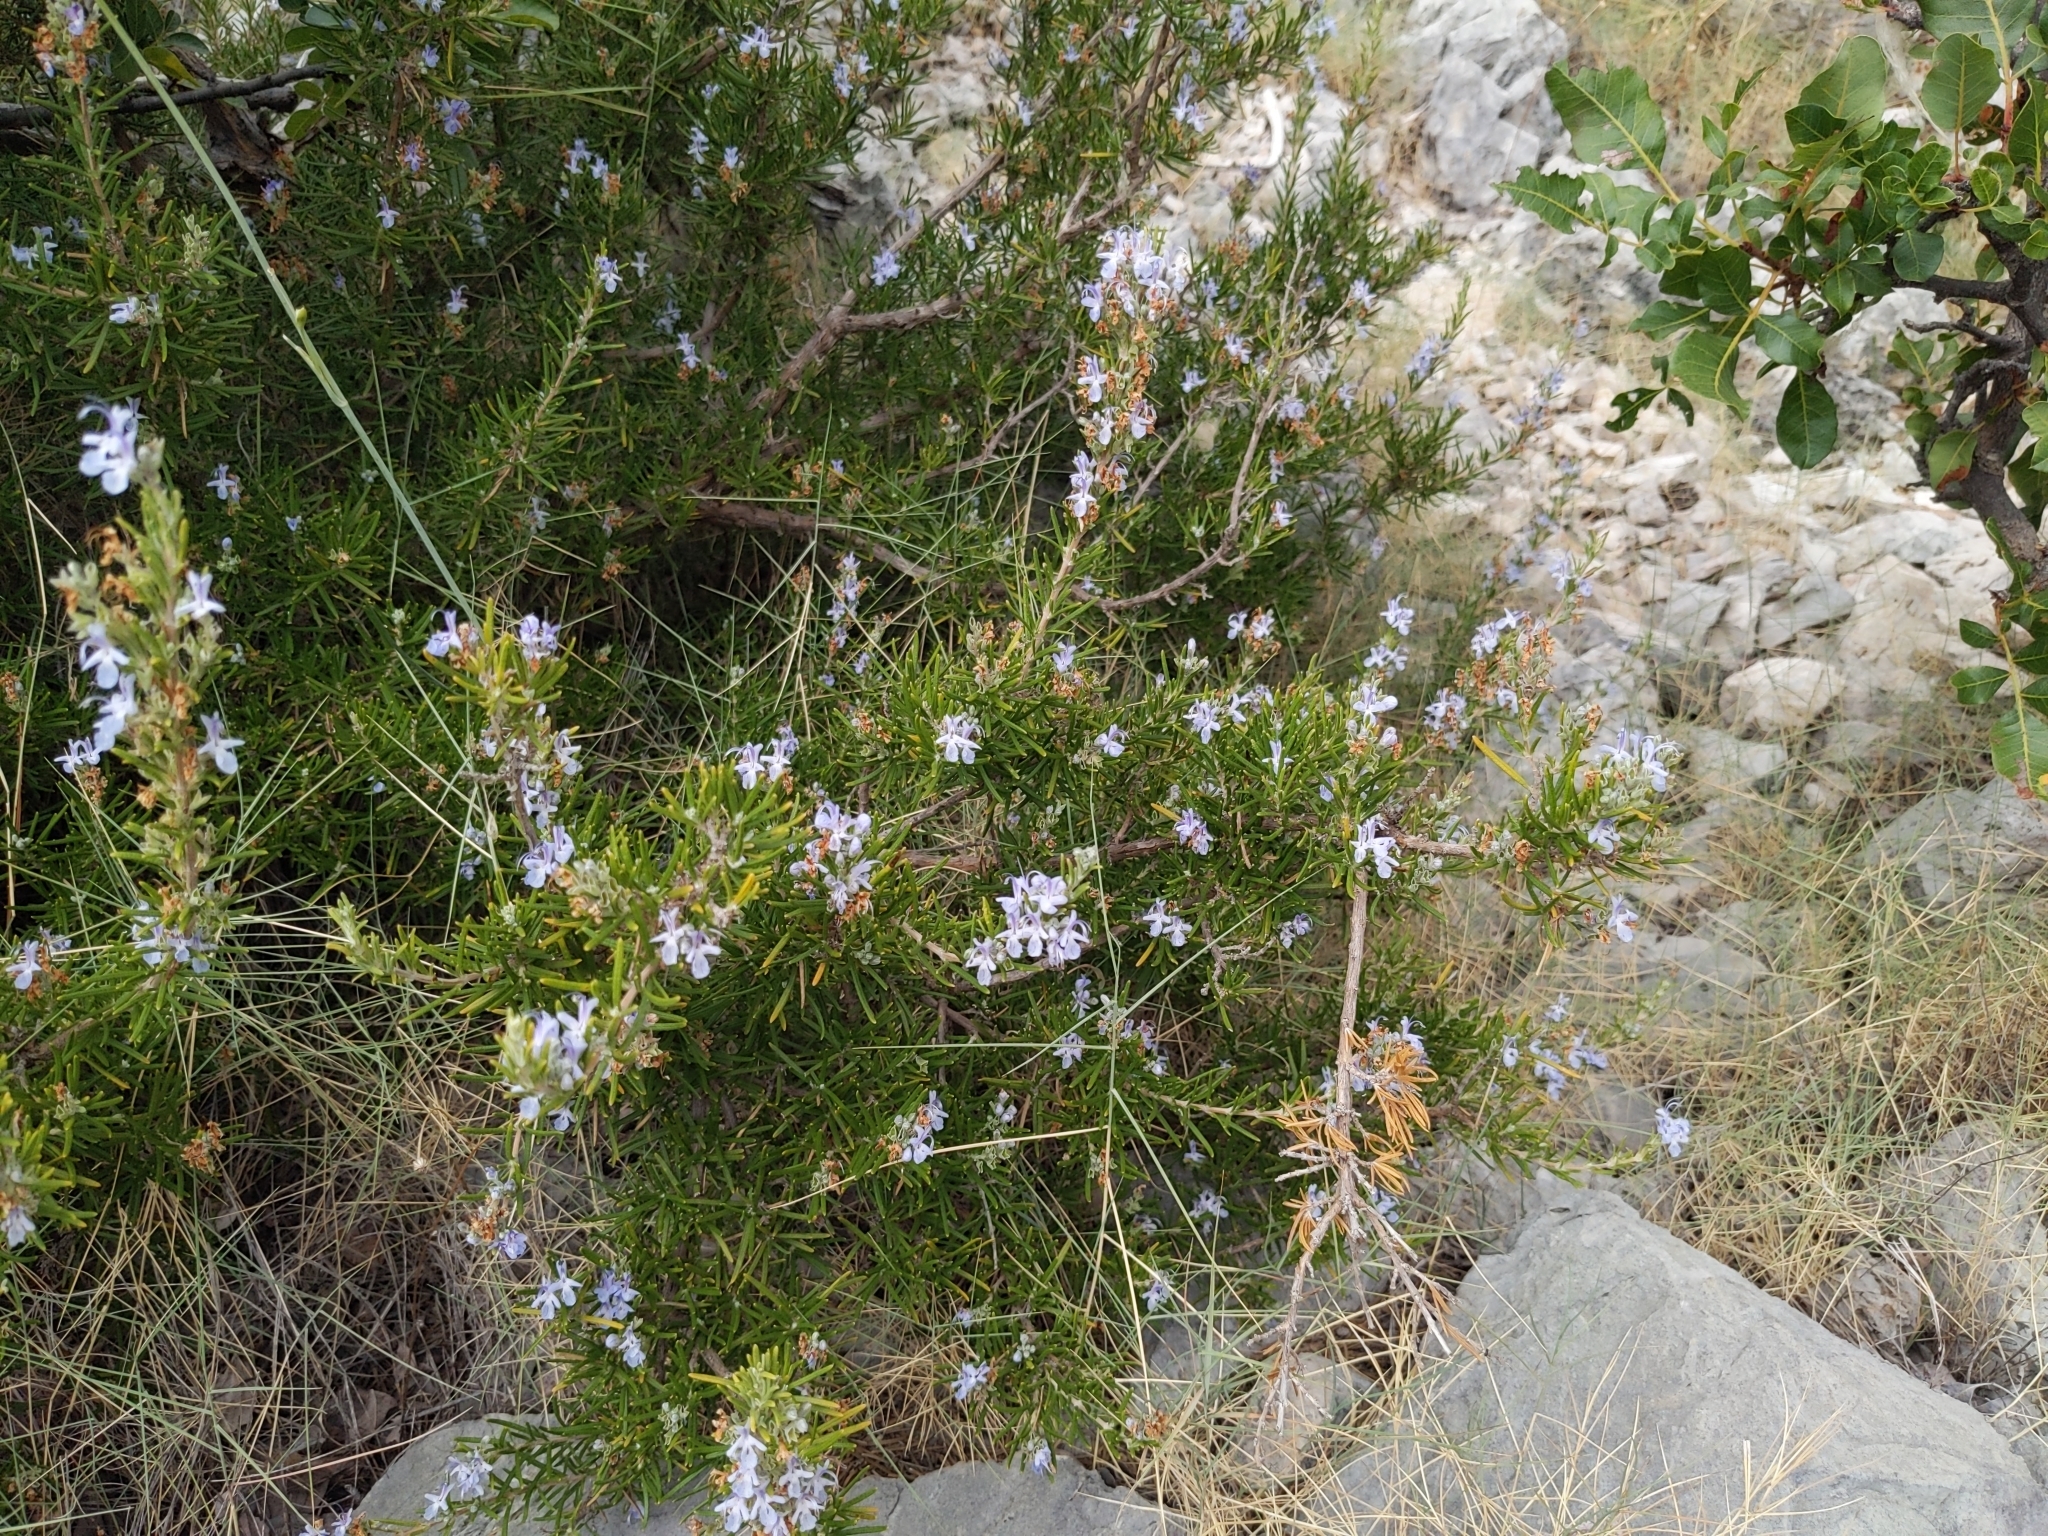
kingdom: Plantae
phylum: Tracheophyta
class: Magnoliopsida
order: Lamiales
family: Lamiaceae
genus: Salvia
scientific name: Salvia rosmarinus
